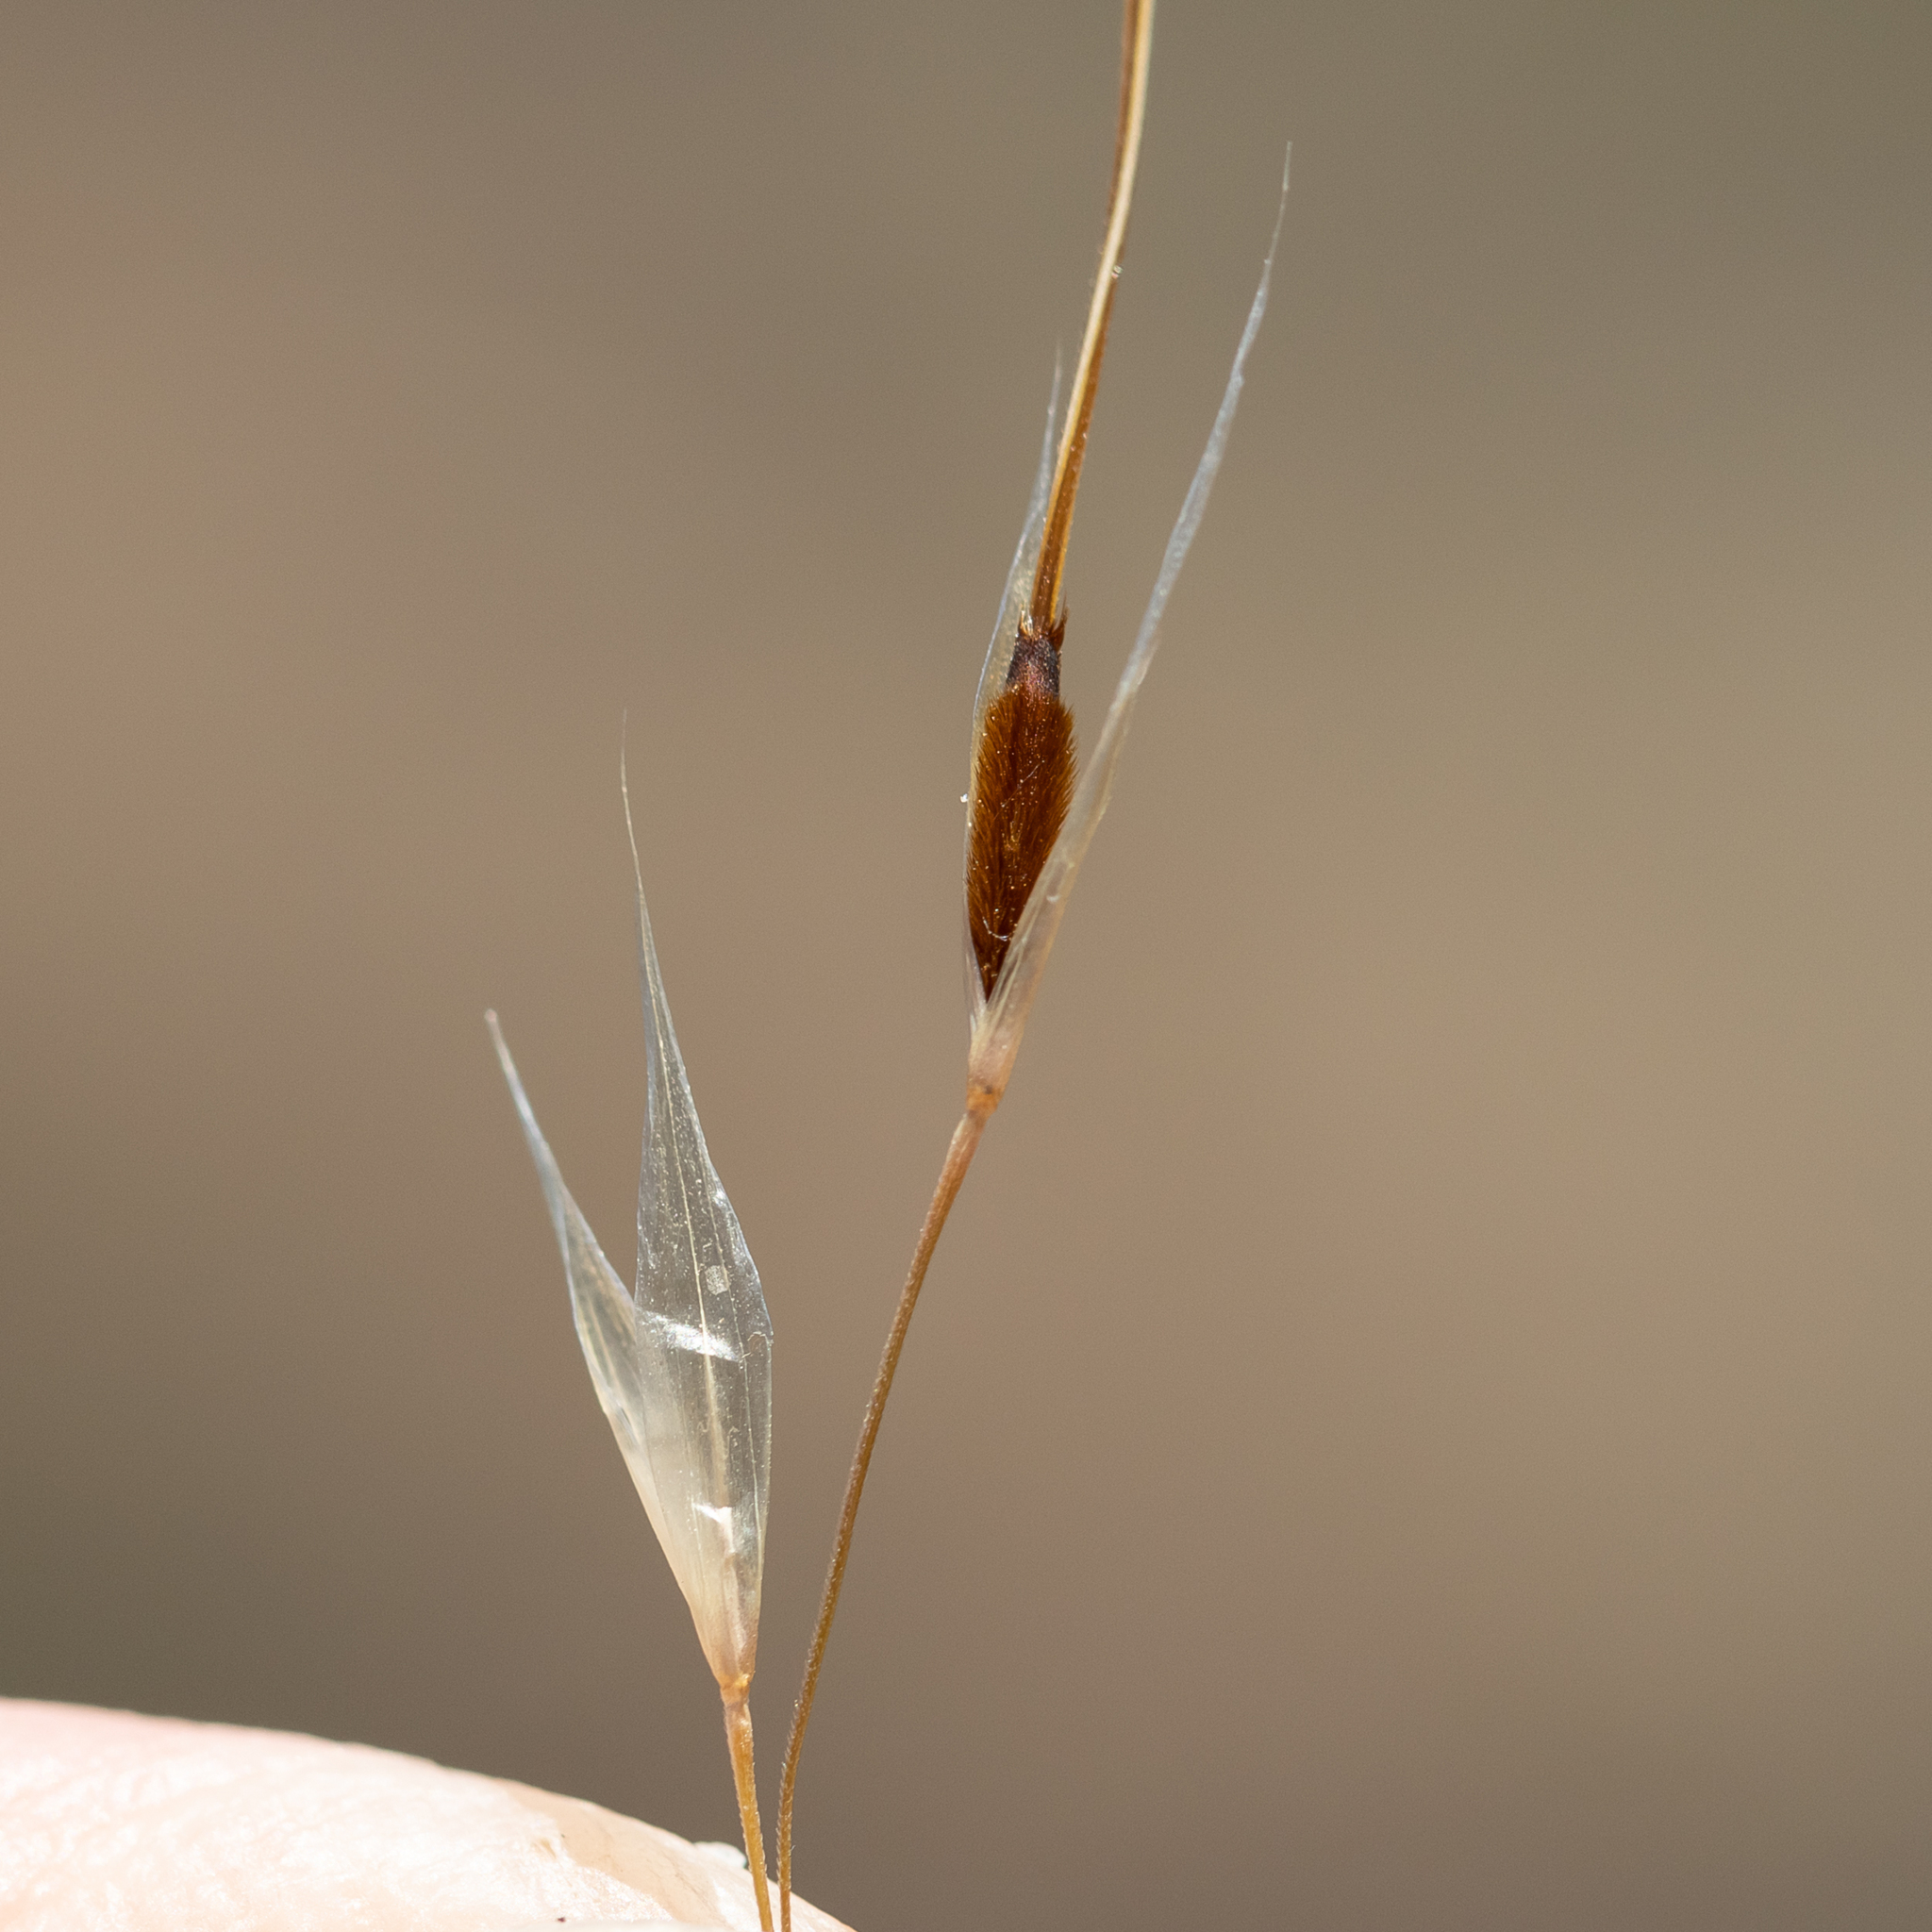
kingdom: Plantae
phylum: Tracheophyta
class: Liliopsida
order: Poales
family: Poaceae
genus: Austrostipa
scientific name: Austrostipa eremophila
